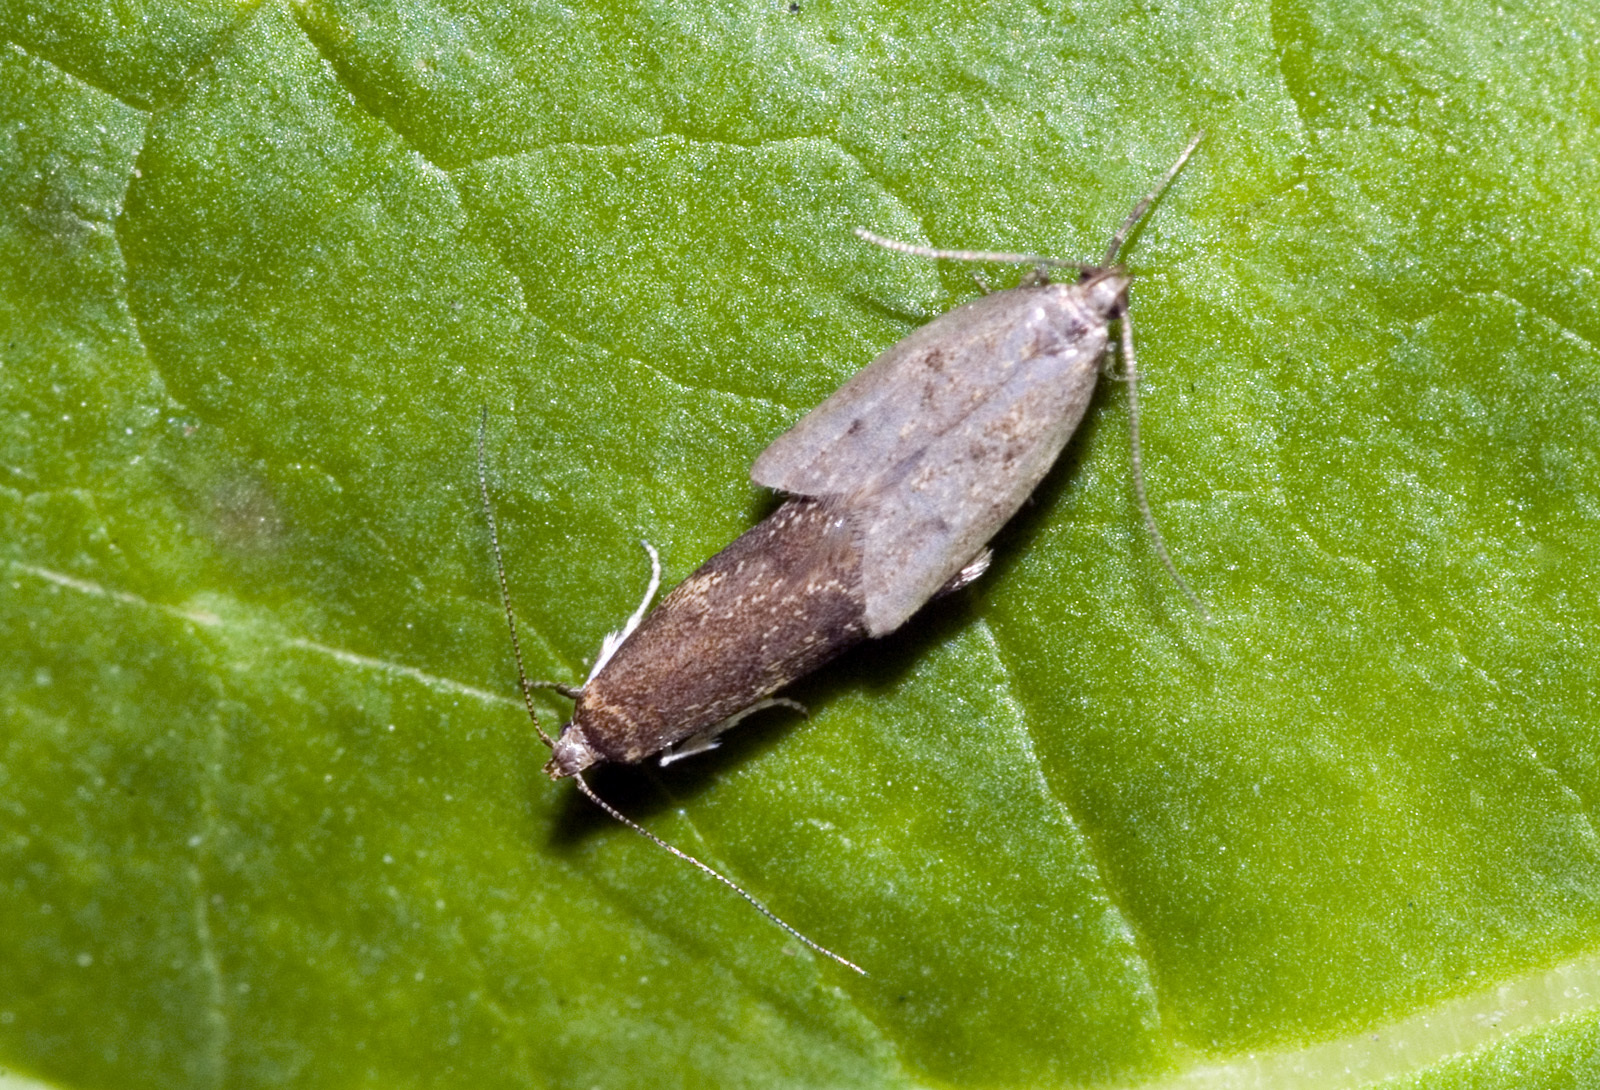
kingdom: Animalia
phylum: Arthropoda
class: Insecta
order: Lepidoptera
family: Oecophoridae
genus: Gymnobathra
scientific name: Gymnobathra tholodella
